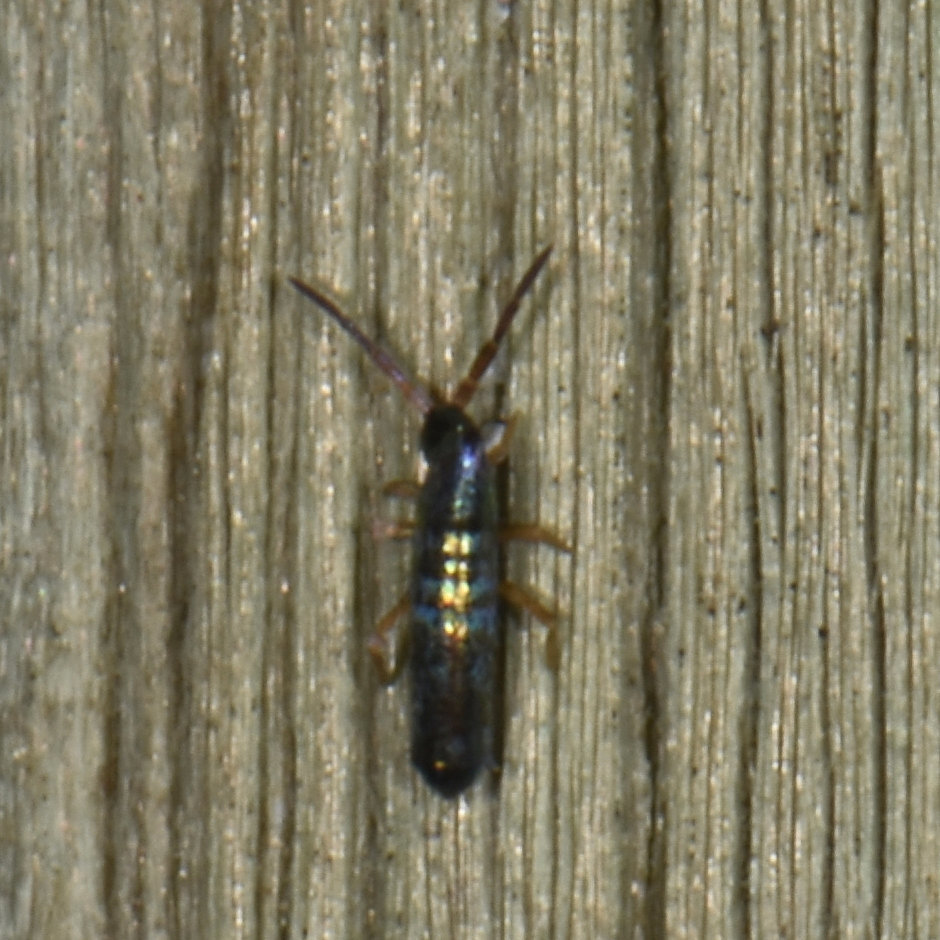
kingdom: Animalia
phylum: Arthropoda
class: Collembola
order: Entomobryomorpha
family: Entomobryidae
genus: Lepidocyrtus
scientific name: Lepidocyrtus paradoxus
